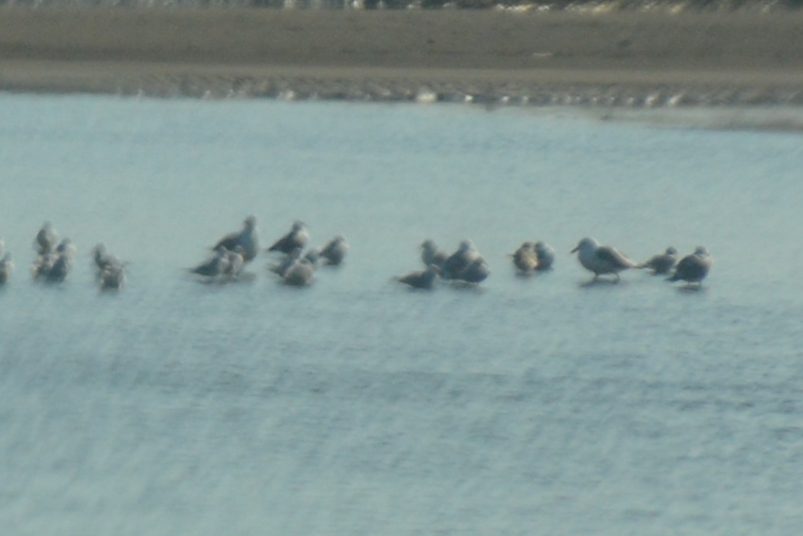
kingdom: Animalia
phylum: Chordata
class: Aves
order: Charadriiformes
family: Laridae
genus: Larus
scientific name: Larus cachinnans
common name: Caspian gull
